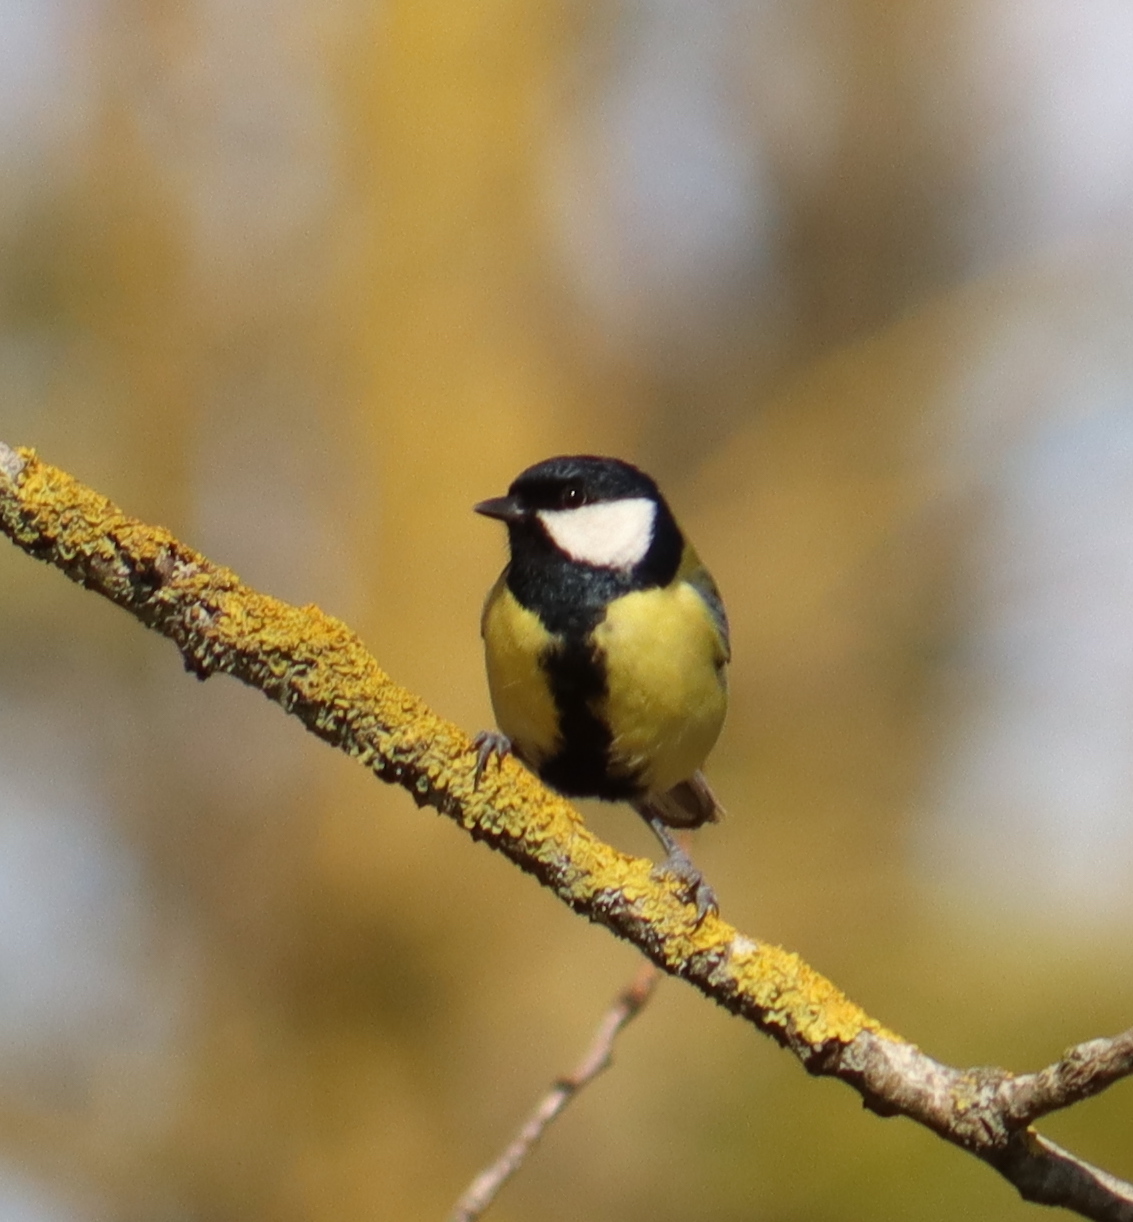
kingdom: Animalia
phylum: Chordata
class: Aves
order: Passeriformes
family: Paridae
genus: Parus
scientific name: Parus major
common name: Great tit
